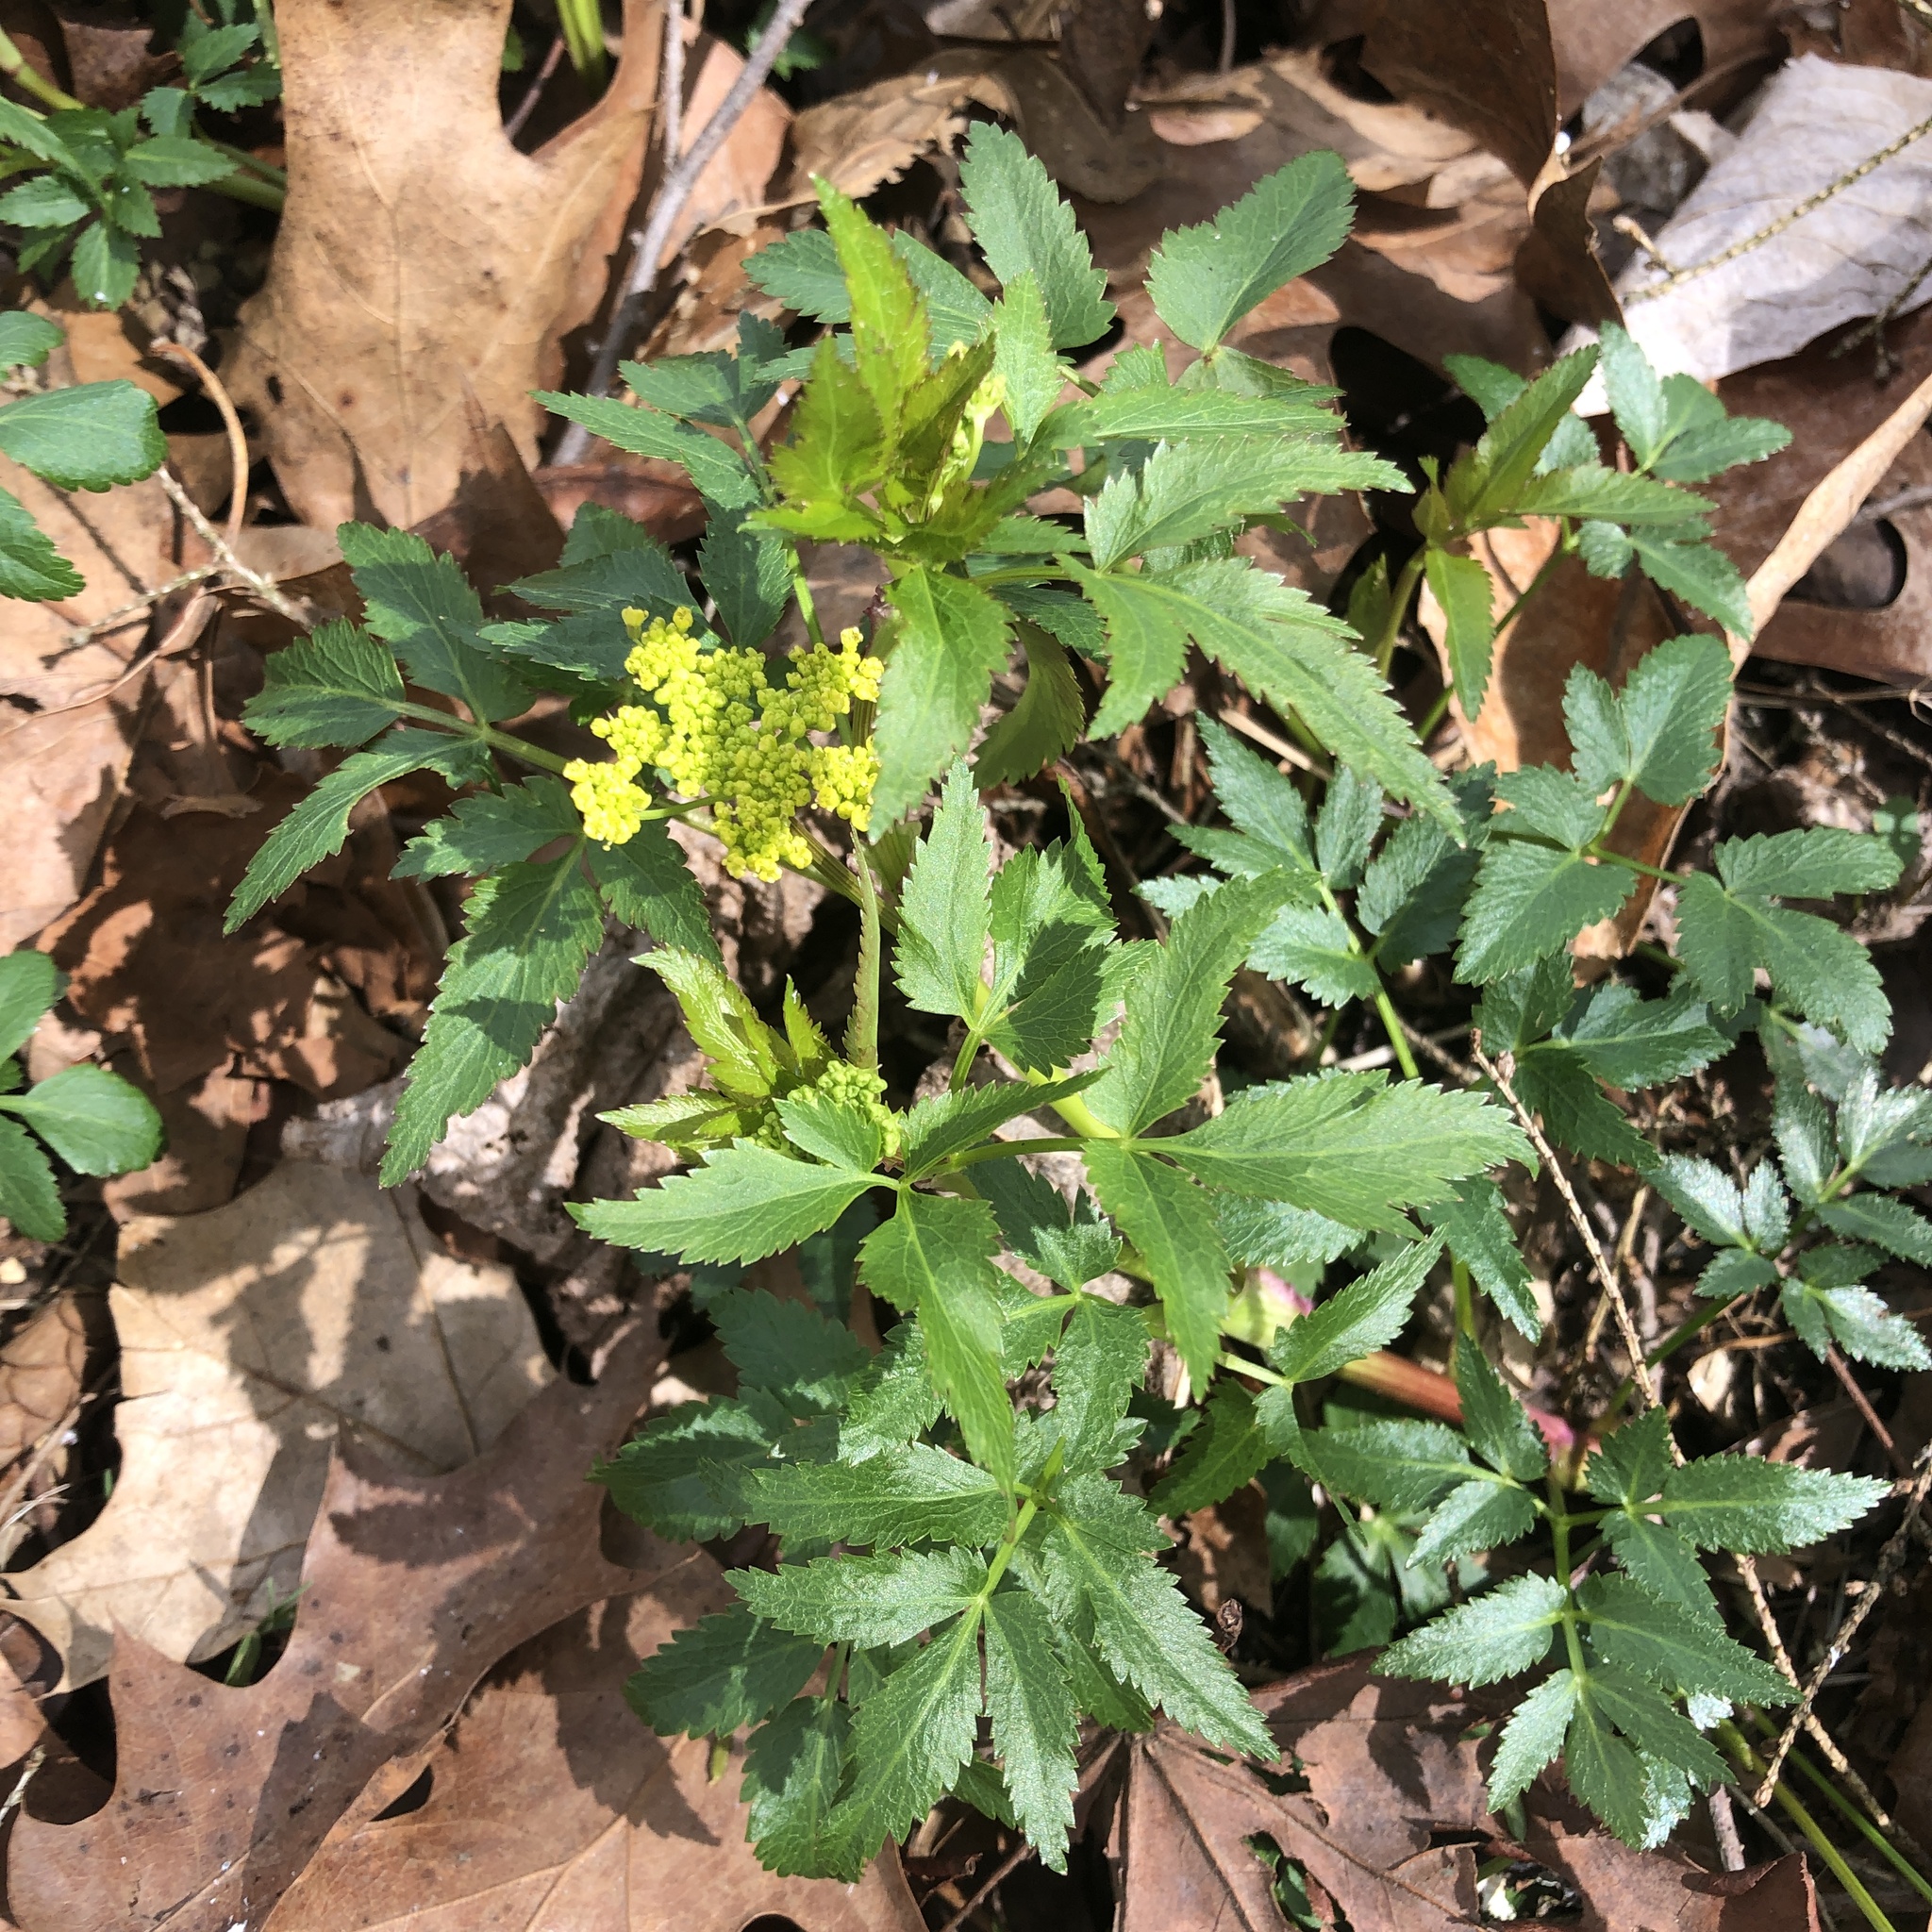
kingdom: Plantae
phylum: Tracheophyta
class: Magnoliopsida
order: Apiales
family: Apiaceae
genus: Zizia
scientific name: Zizia aurea
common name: Golden alexanders
